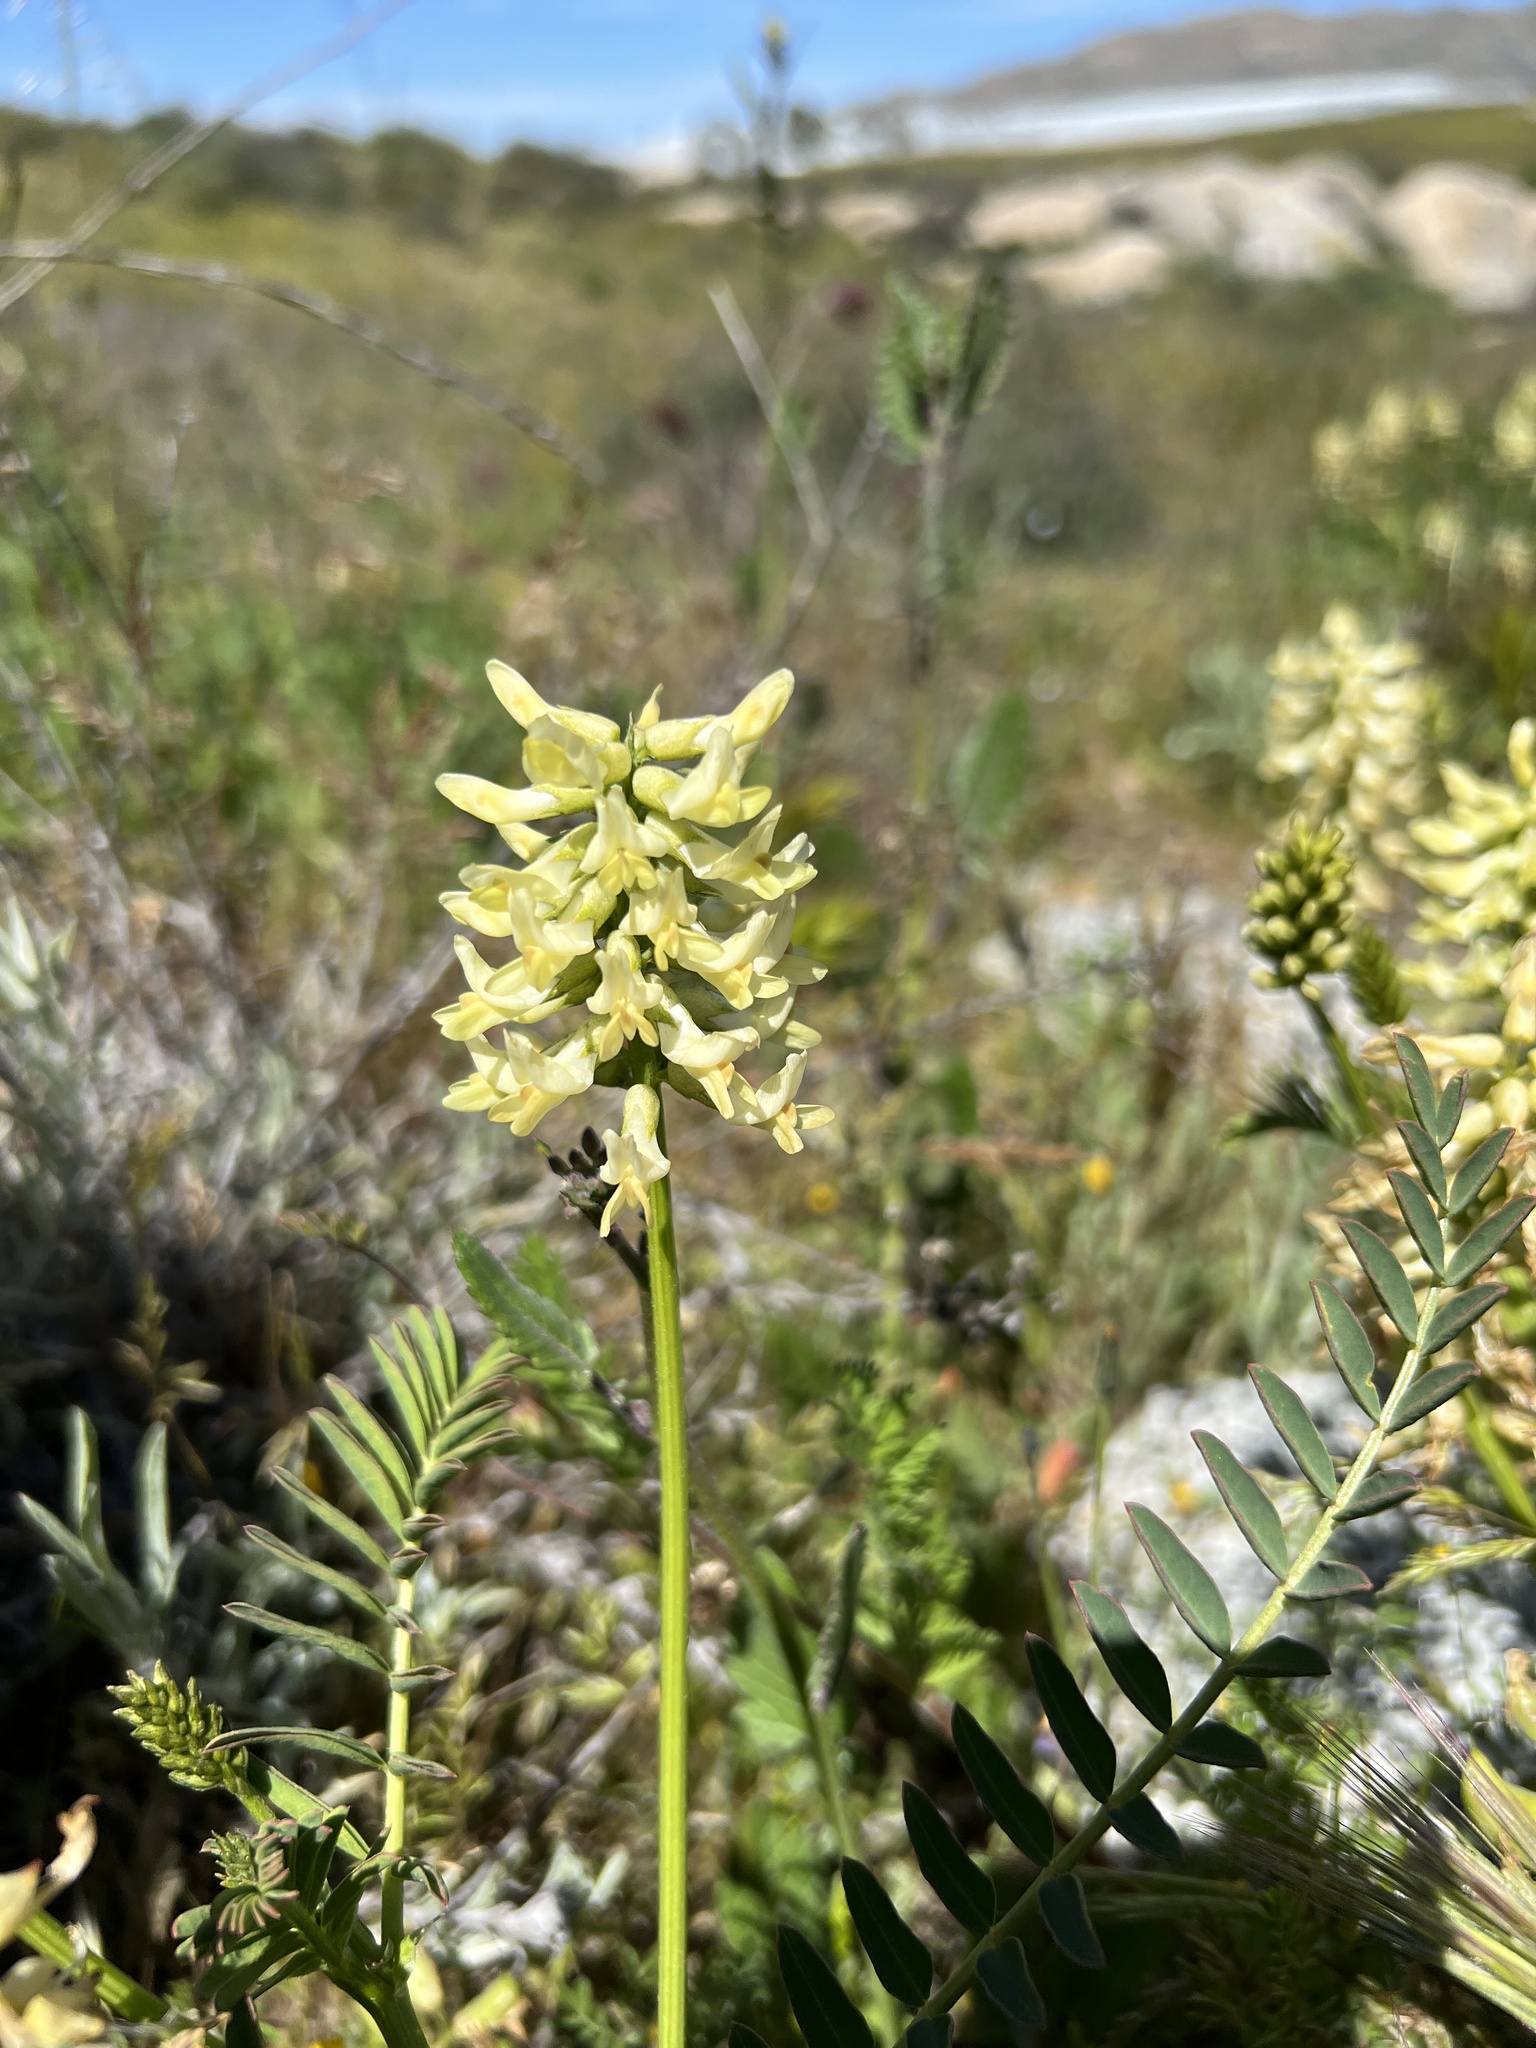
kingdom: Plantae
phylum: Tracheophyta
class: Magnoliopsida
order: Fabales
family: Fabaceae
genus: Astragalus
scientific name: Astragalus pomonensis
